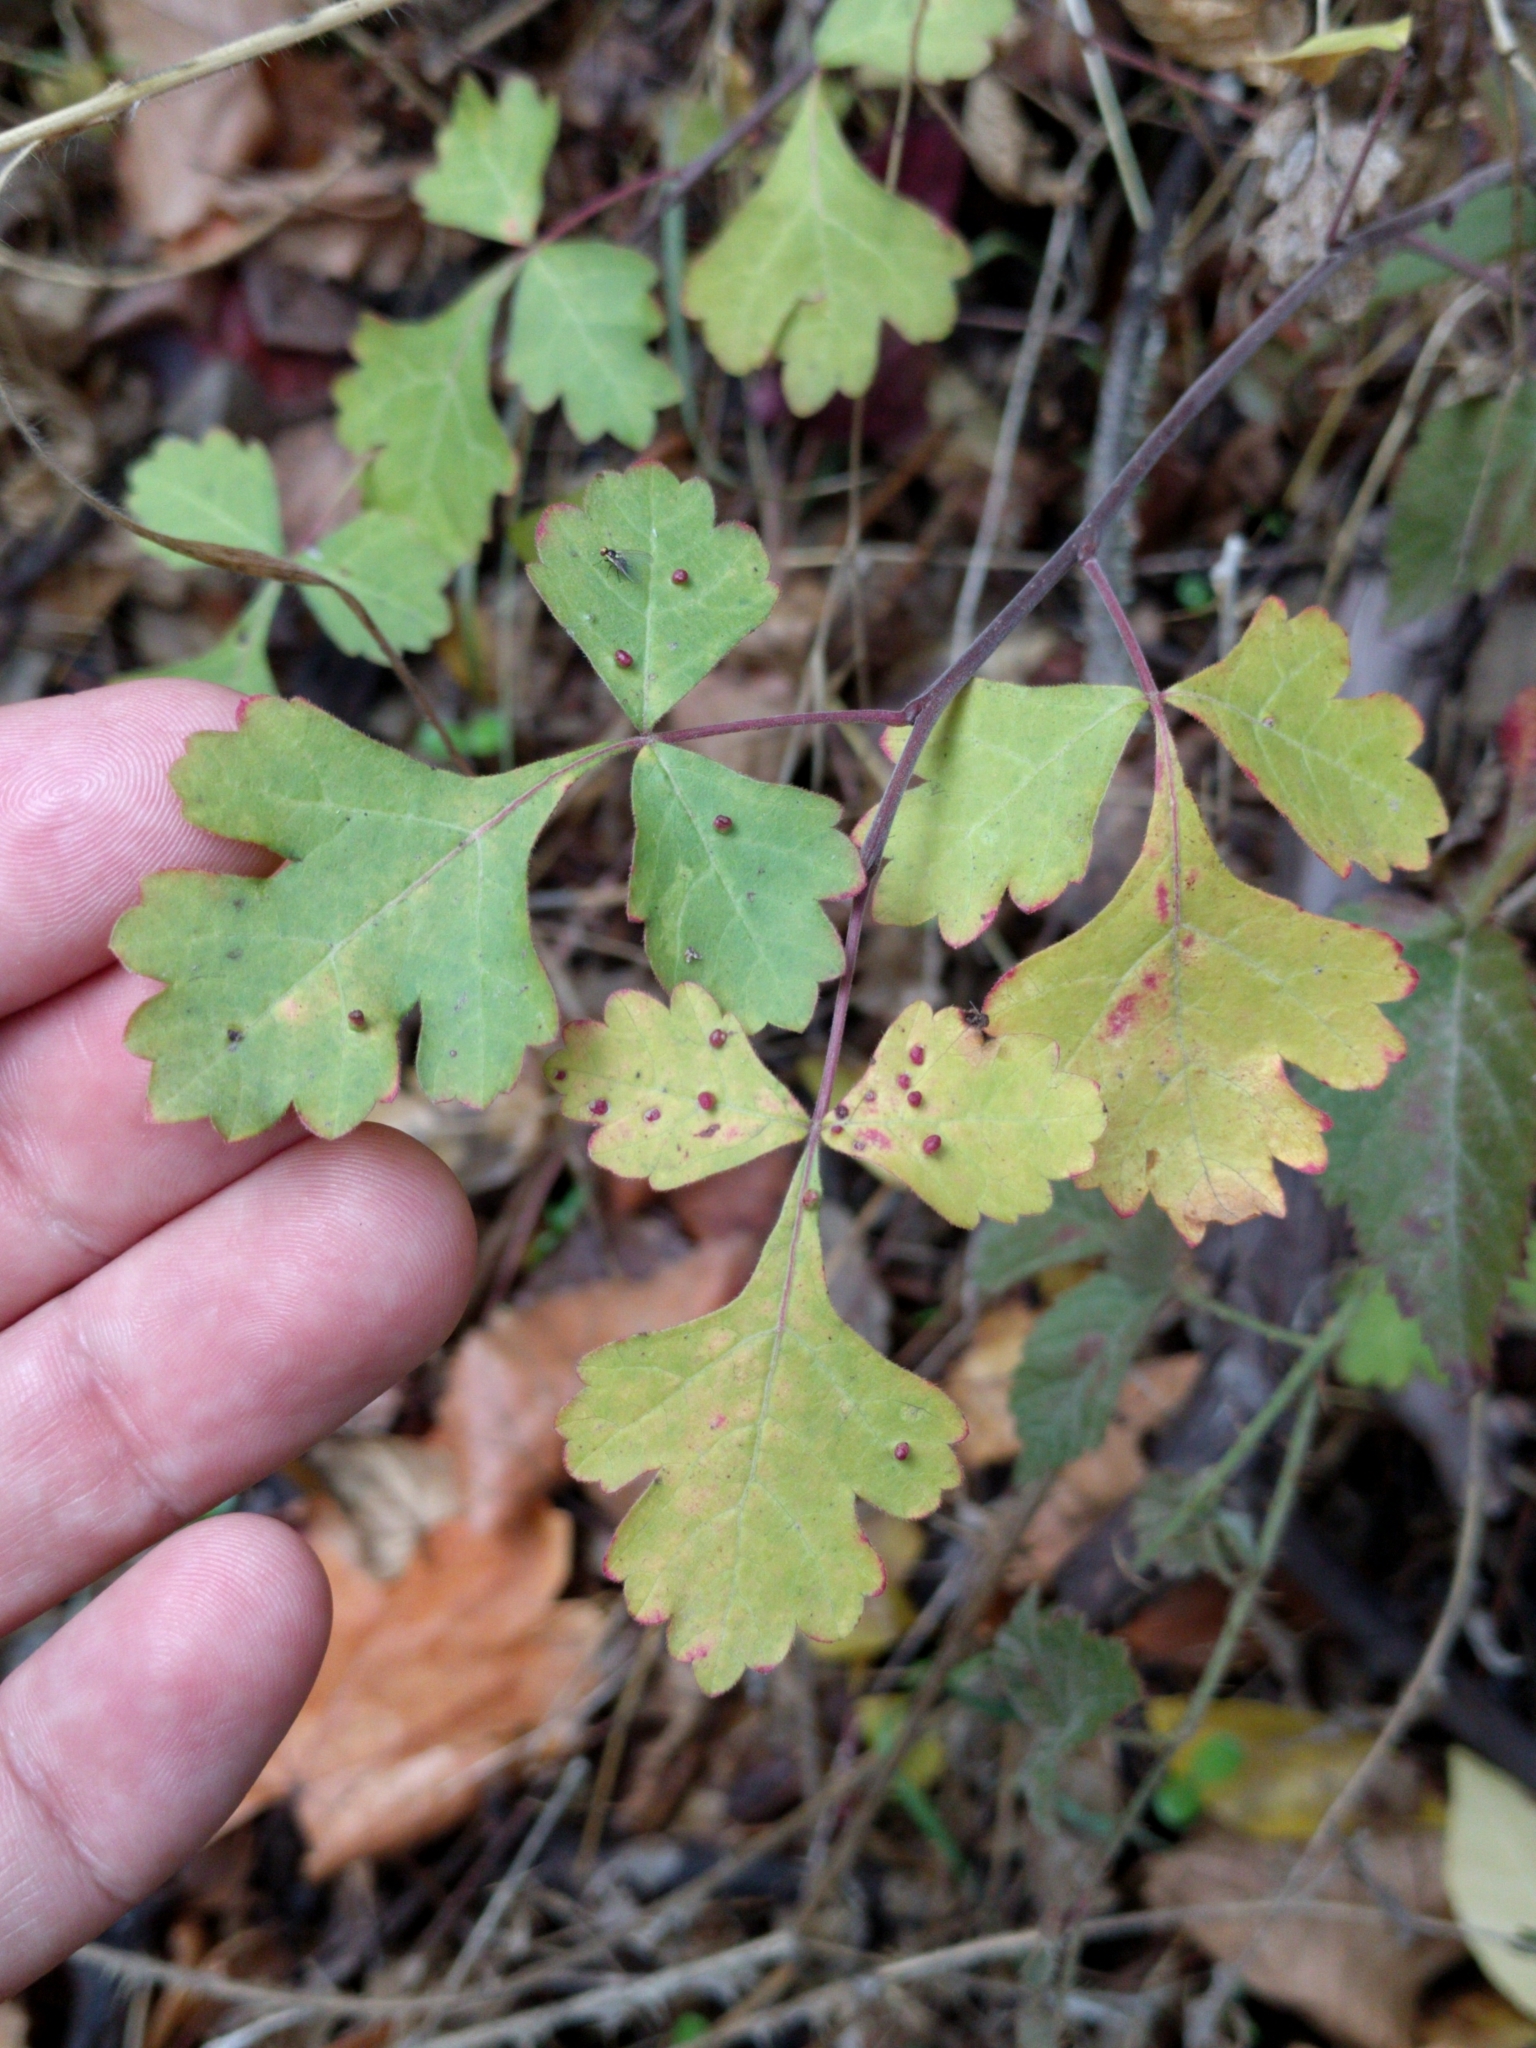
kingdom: Plantae
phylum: Tracheophyta
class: Magnoliopsida
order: Sapindales
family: Anacardiaceae
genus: Rhus
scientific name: Rhus aromatica
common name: Aromatic sumac
